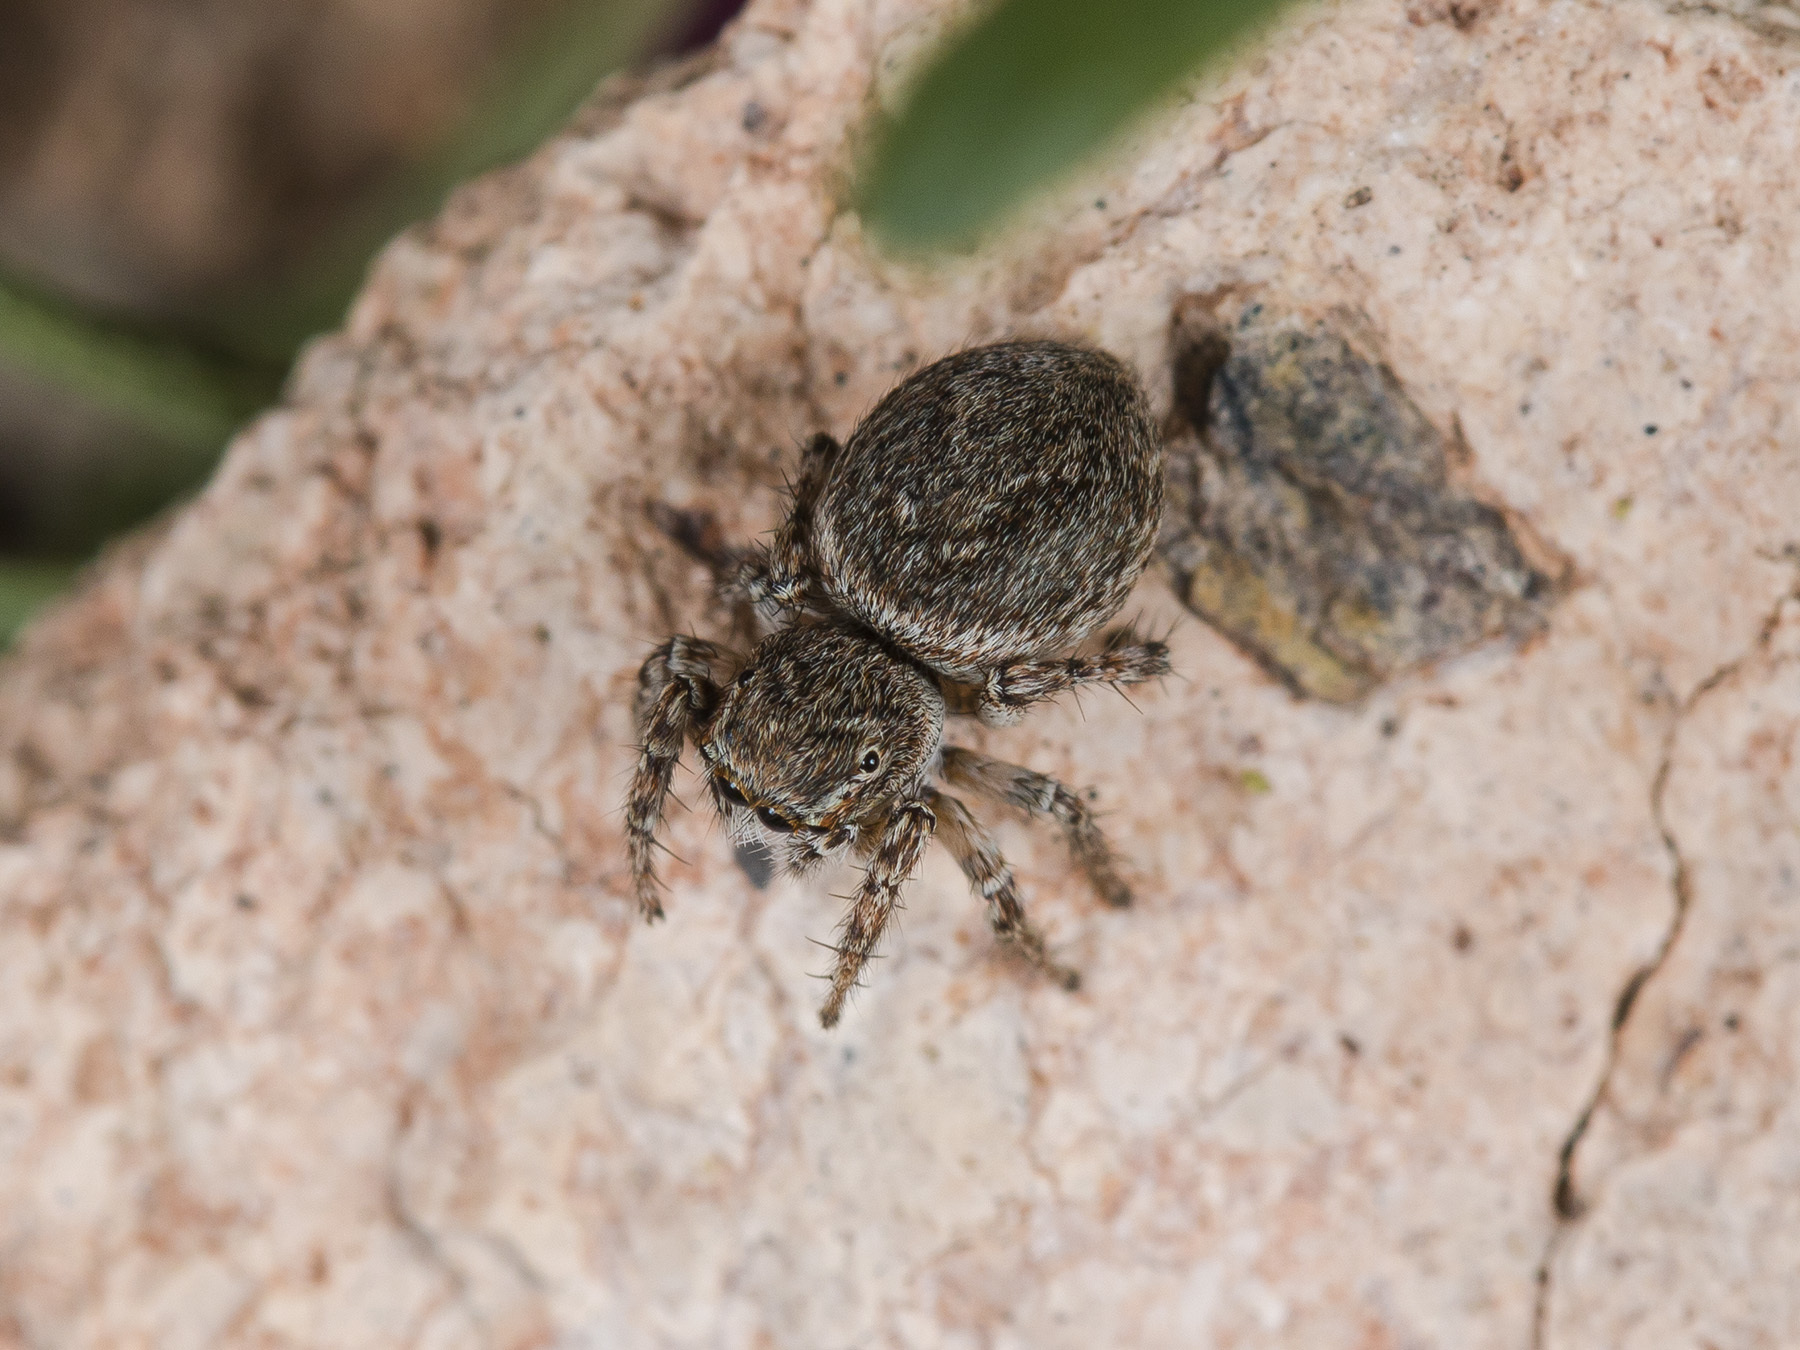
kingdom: Animalia
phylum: Arthropoda
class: Arachnida
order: Araneae
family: Salticidae
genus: Attulus
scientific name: Attulus mirandus
